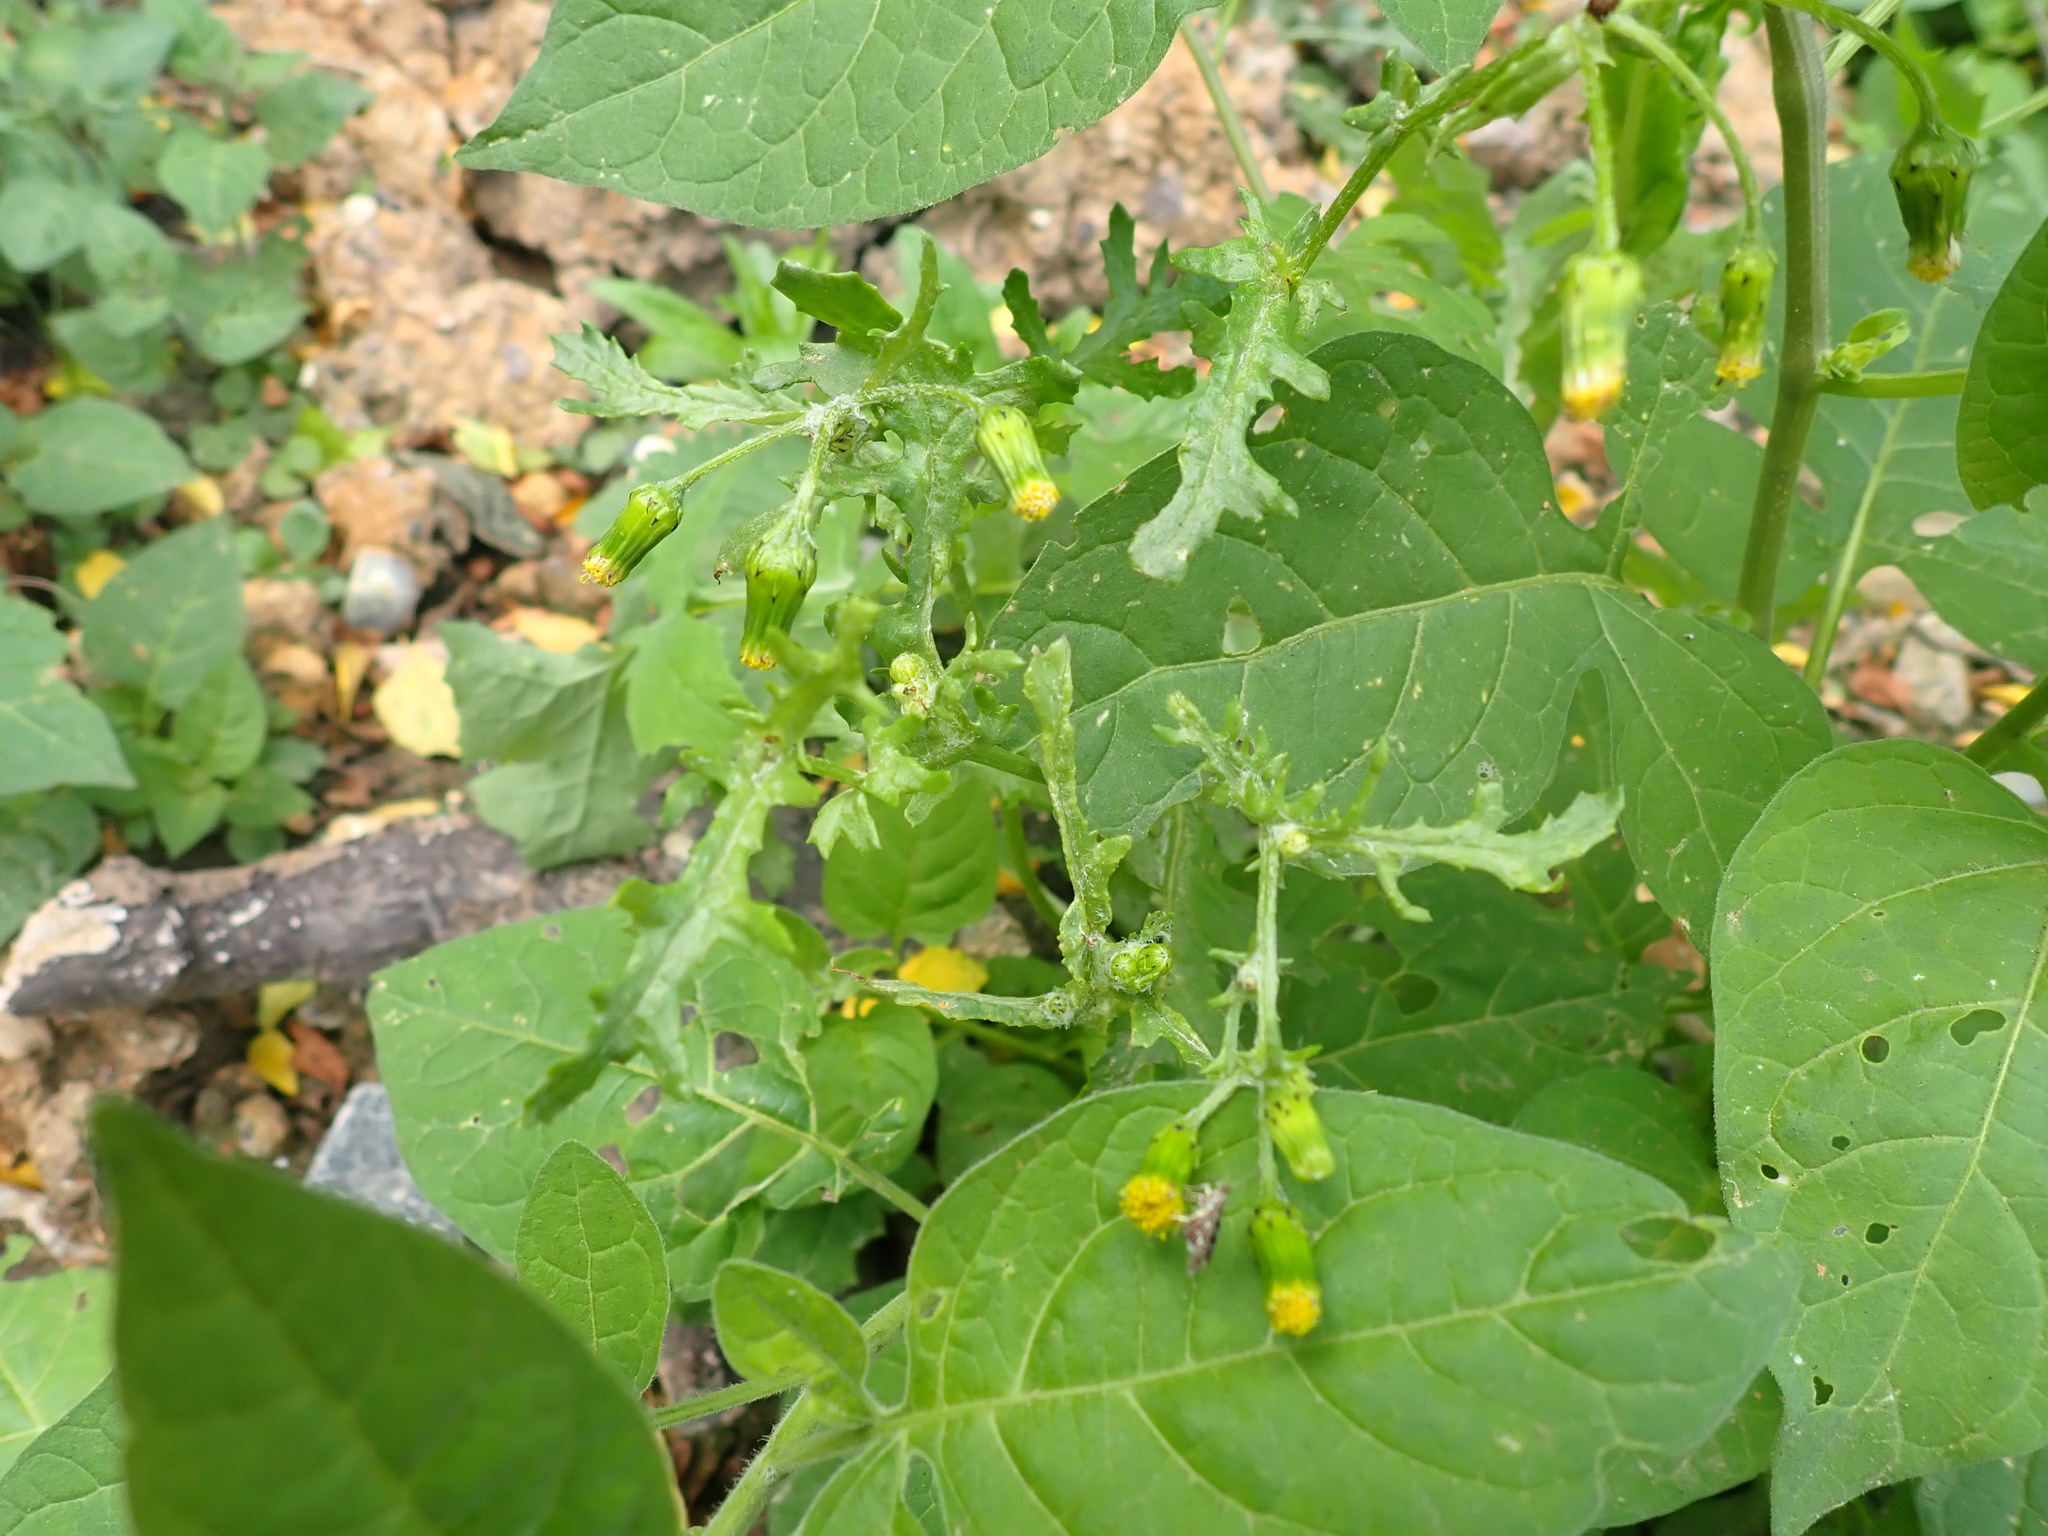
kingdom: Plantae
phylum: Tracheophyta
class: Magnoliopsida
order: Asterales
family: Asteraceae
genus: Senecio
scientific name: Senecio vulgaris
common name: Old-man-in-the-spring
